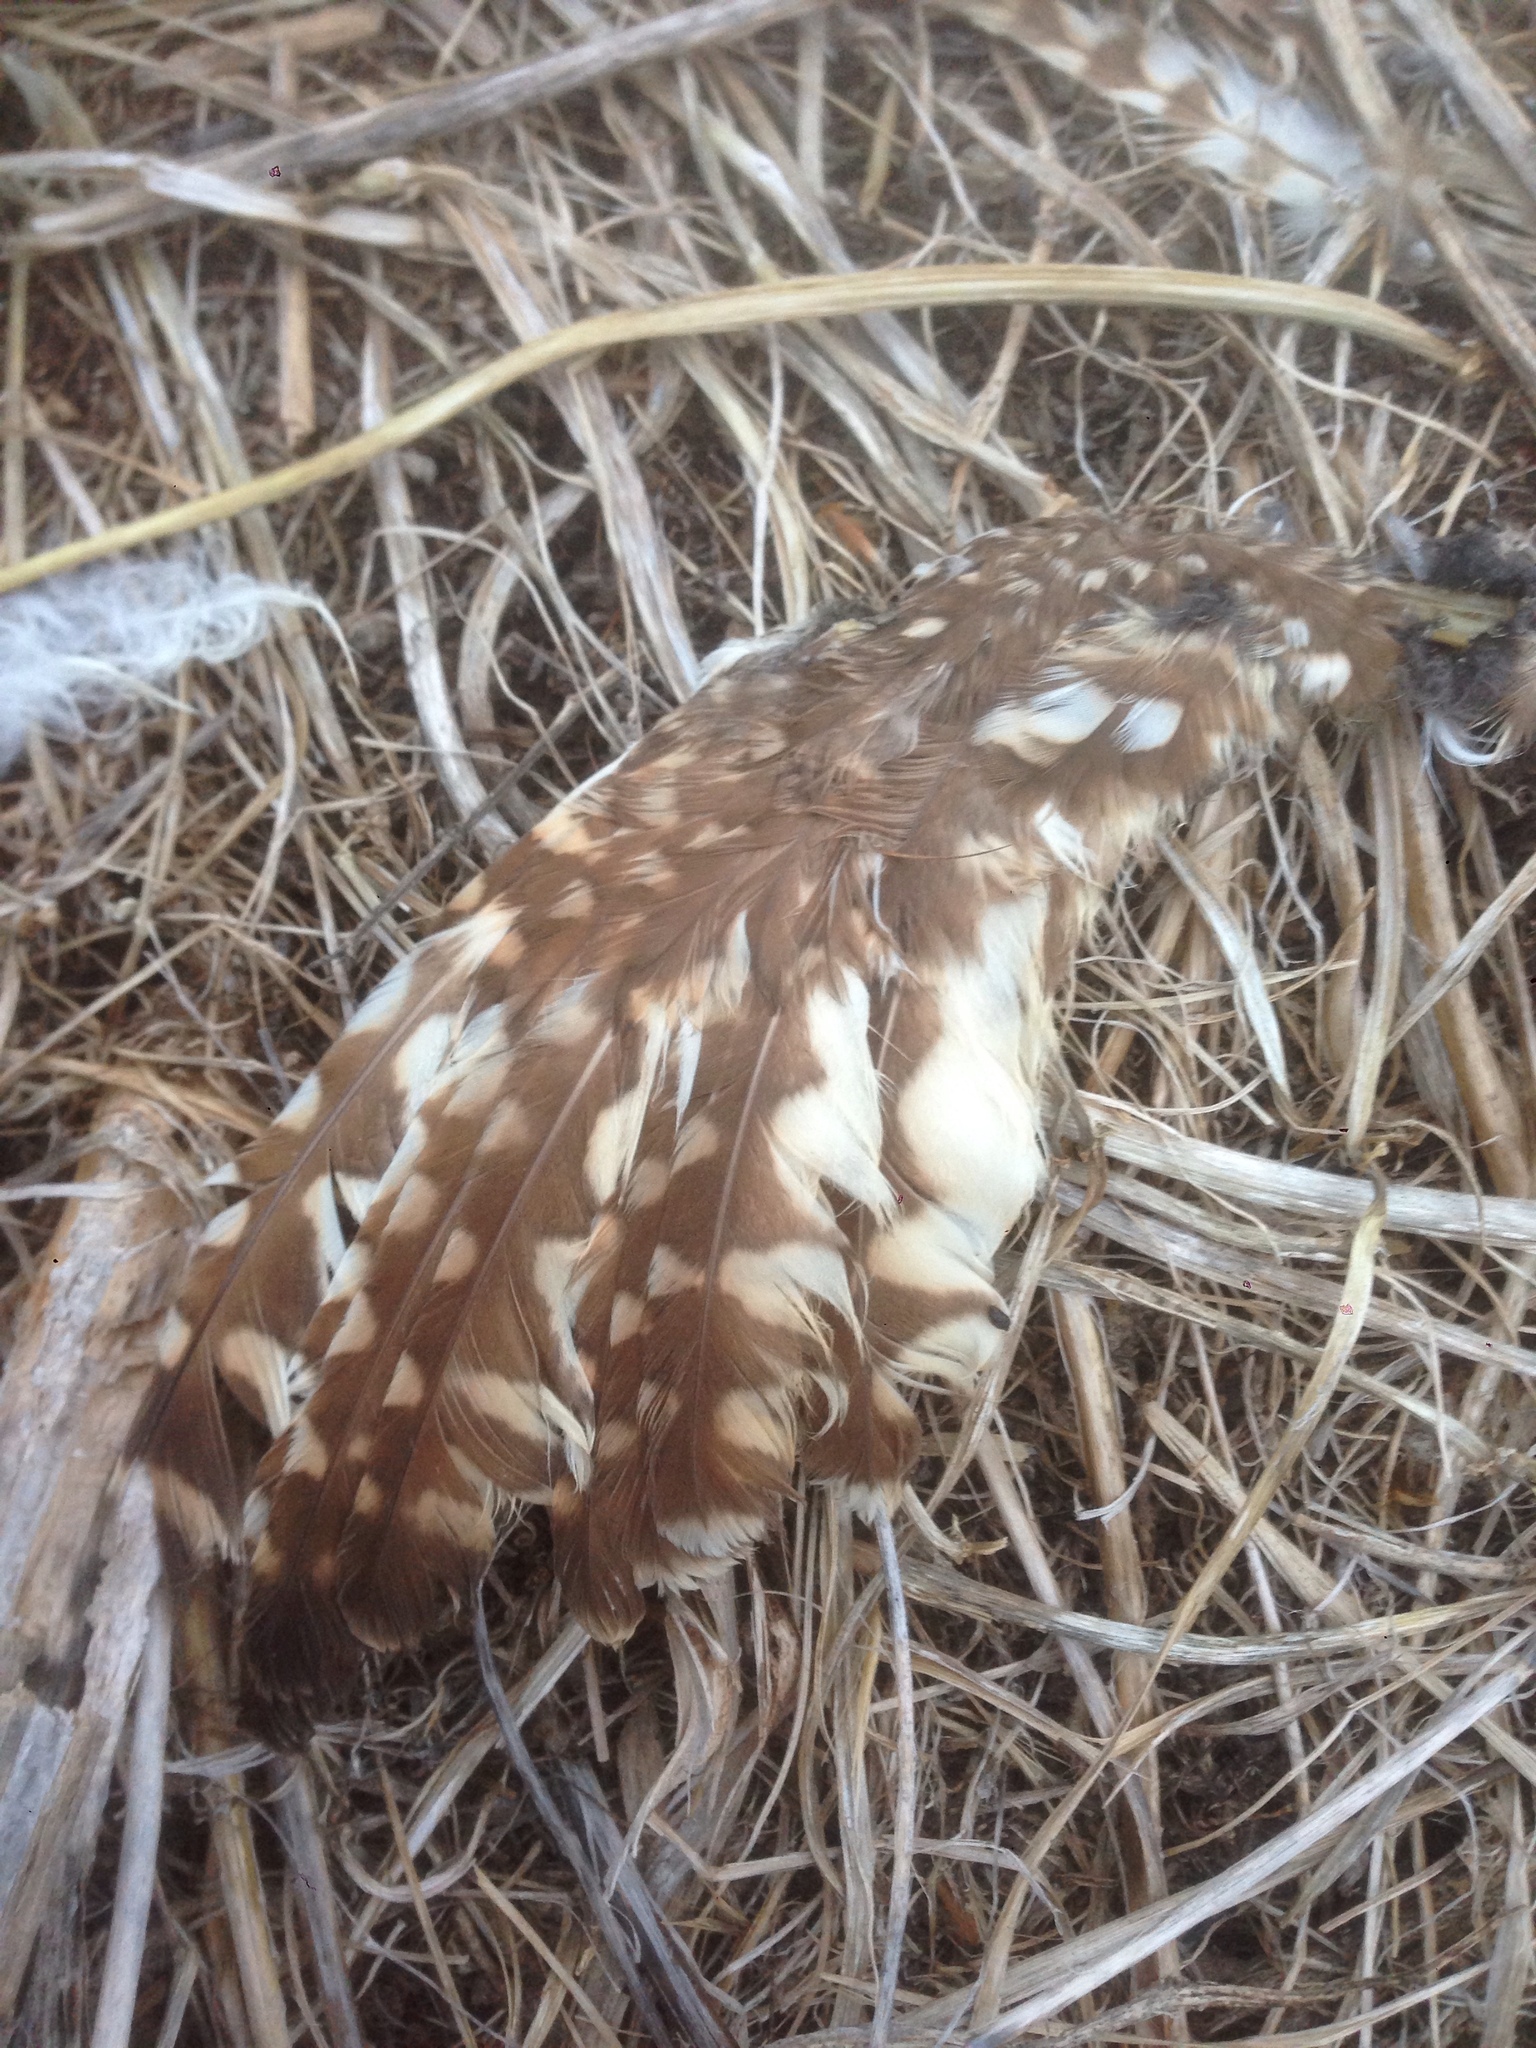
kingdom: Animalia
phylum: Chordata
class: Aves
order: Strigiformes
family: Strigidae
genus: Athene
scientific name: Athene cunicularia
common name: Burrowing owl
